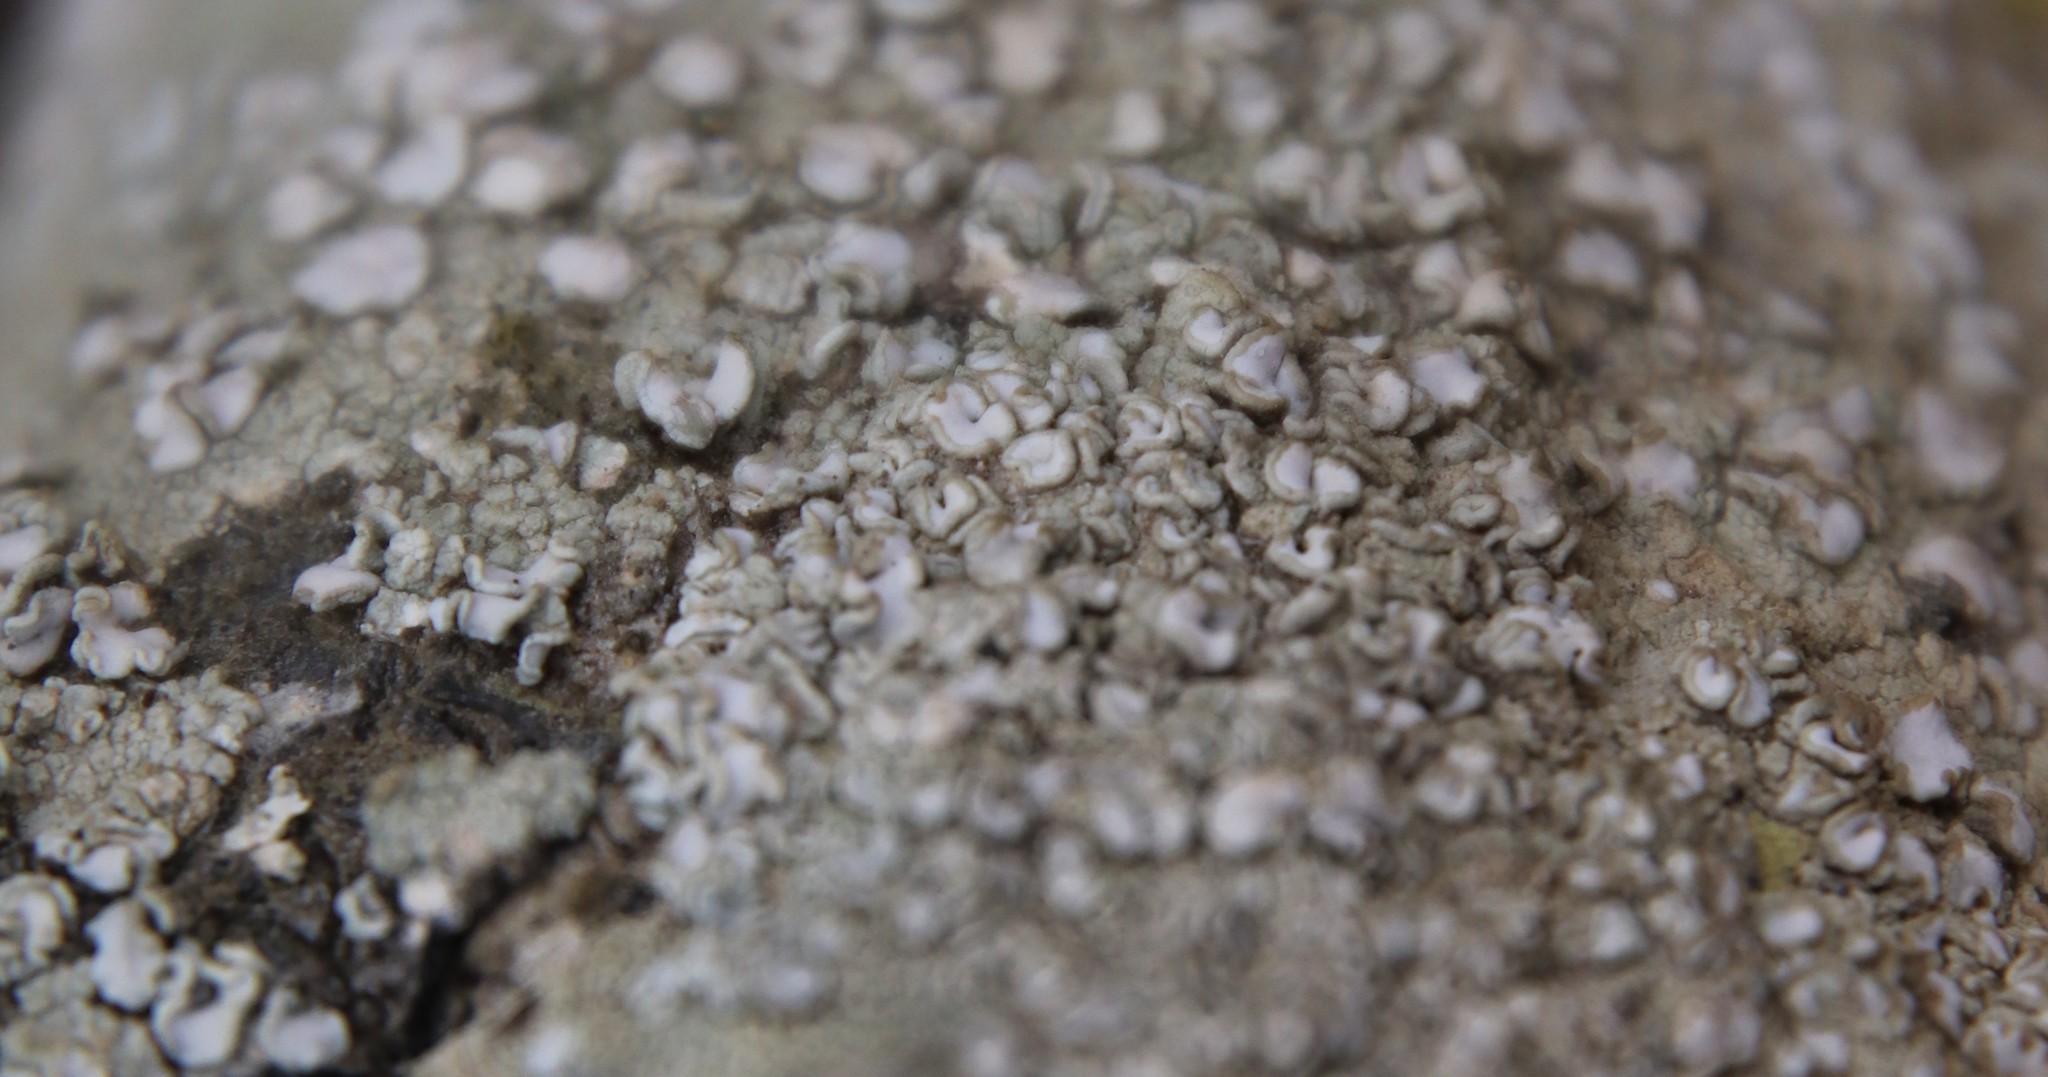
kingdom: Fungi
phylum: Ascomycota
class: Lecanoromycetes
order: Lecanorales
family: Lecanoraceae
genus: Lecanora
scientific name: Lecanora caesiorubella
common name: Frosted rim-lichen
